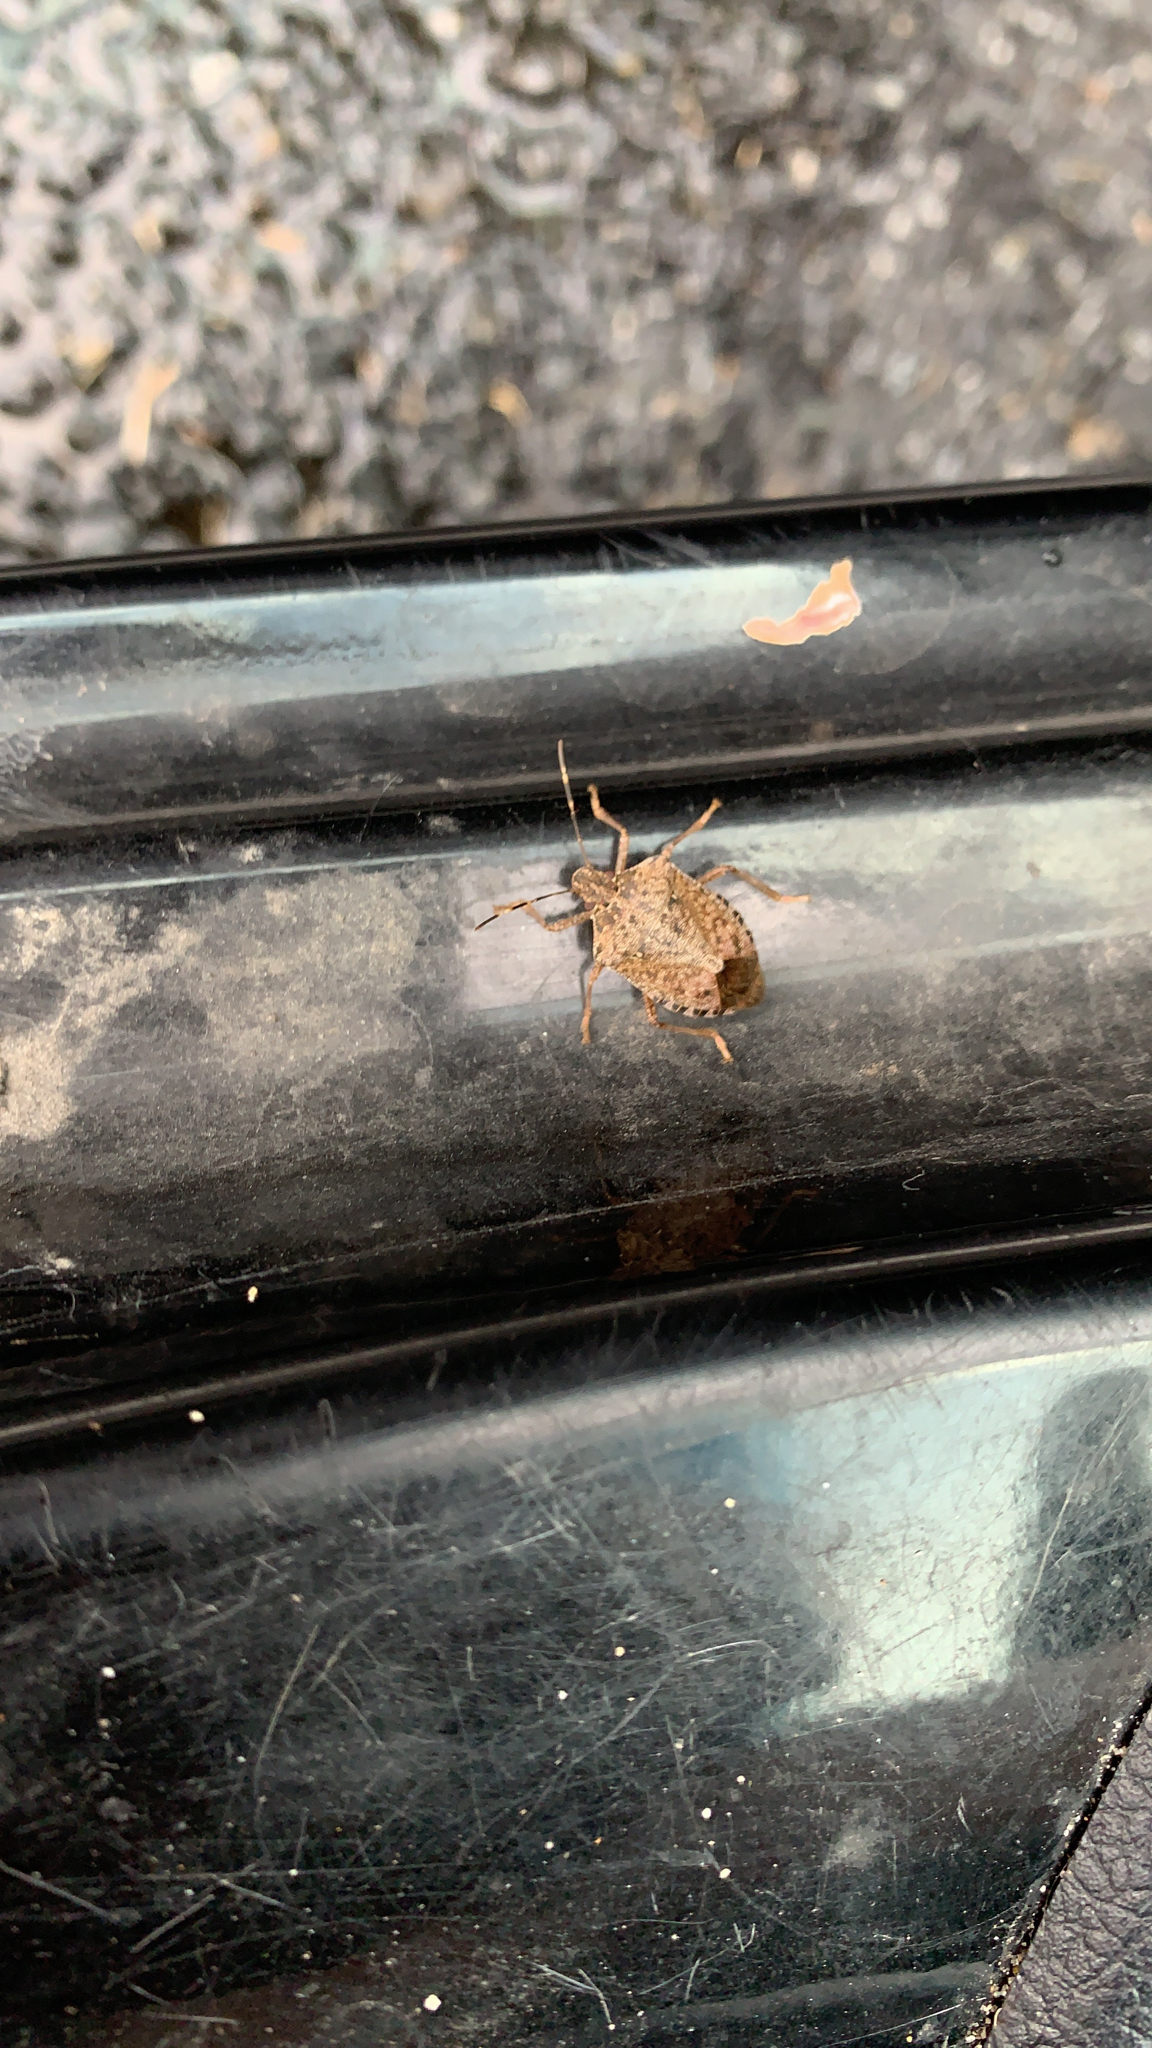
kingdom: Animalia
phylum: Arthropoda
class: Insecta
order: Hemiptera
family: Pentatomidae
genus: Halyomorpha
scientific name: Halyomorpha halys
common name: Brown marmorated stink bug
